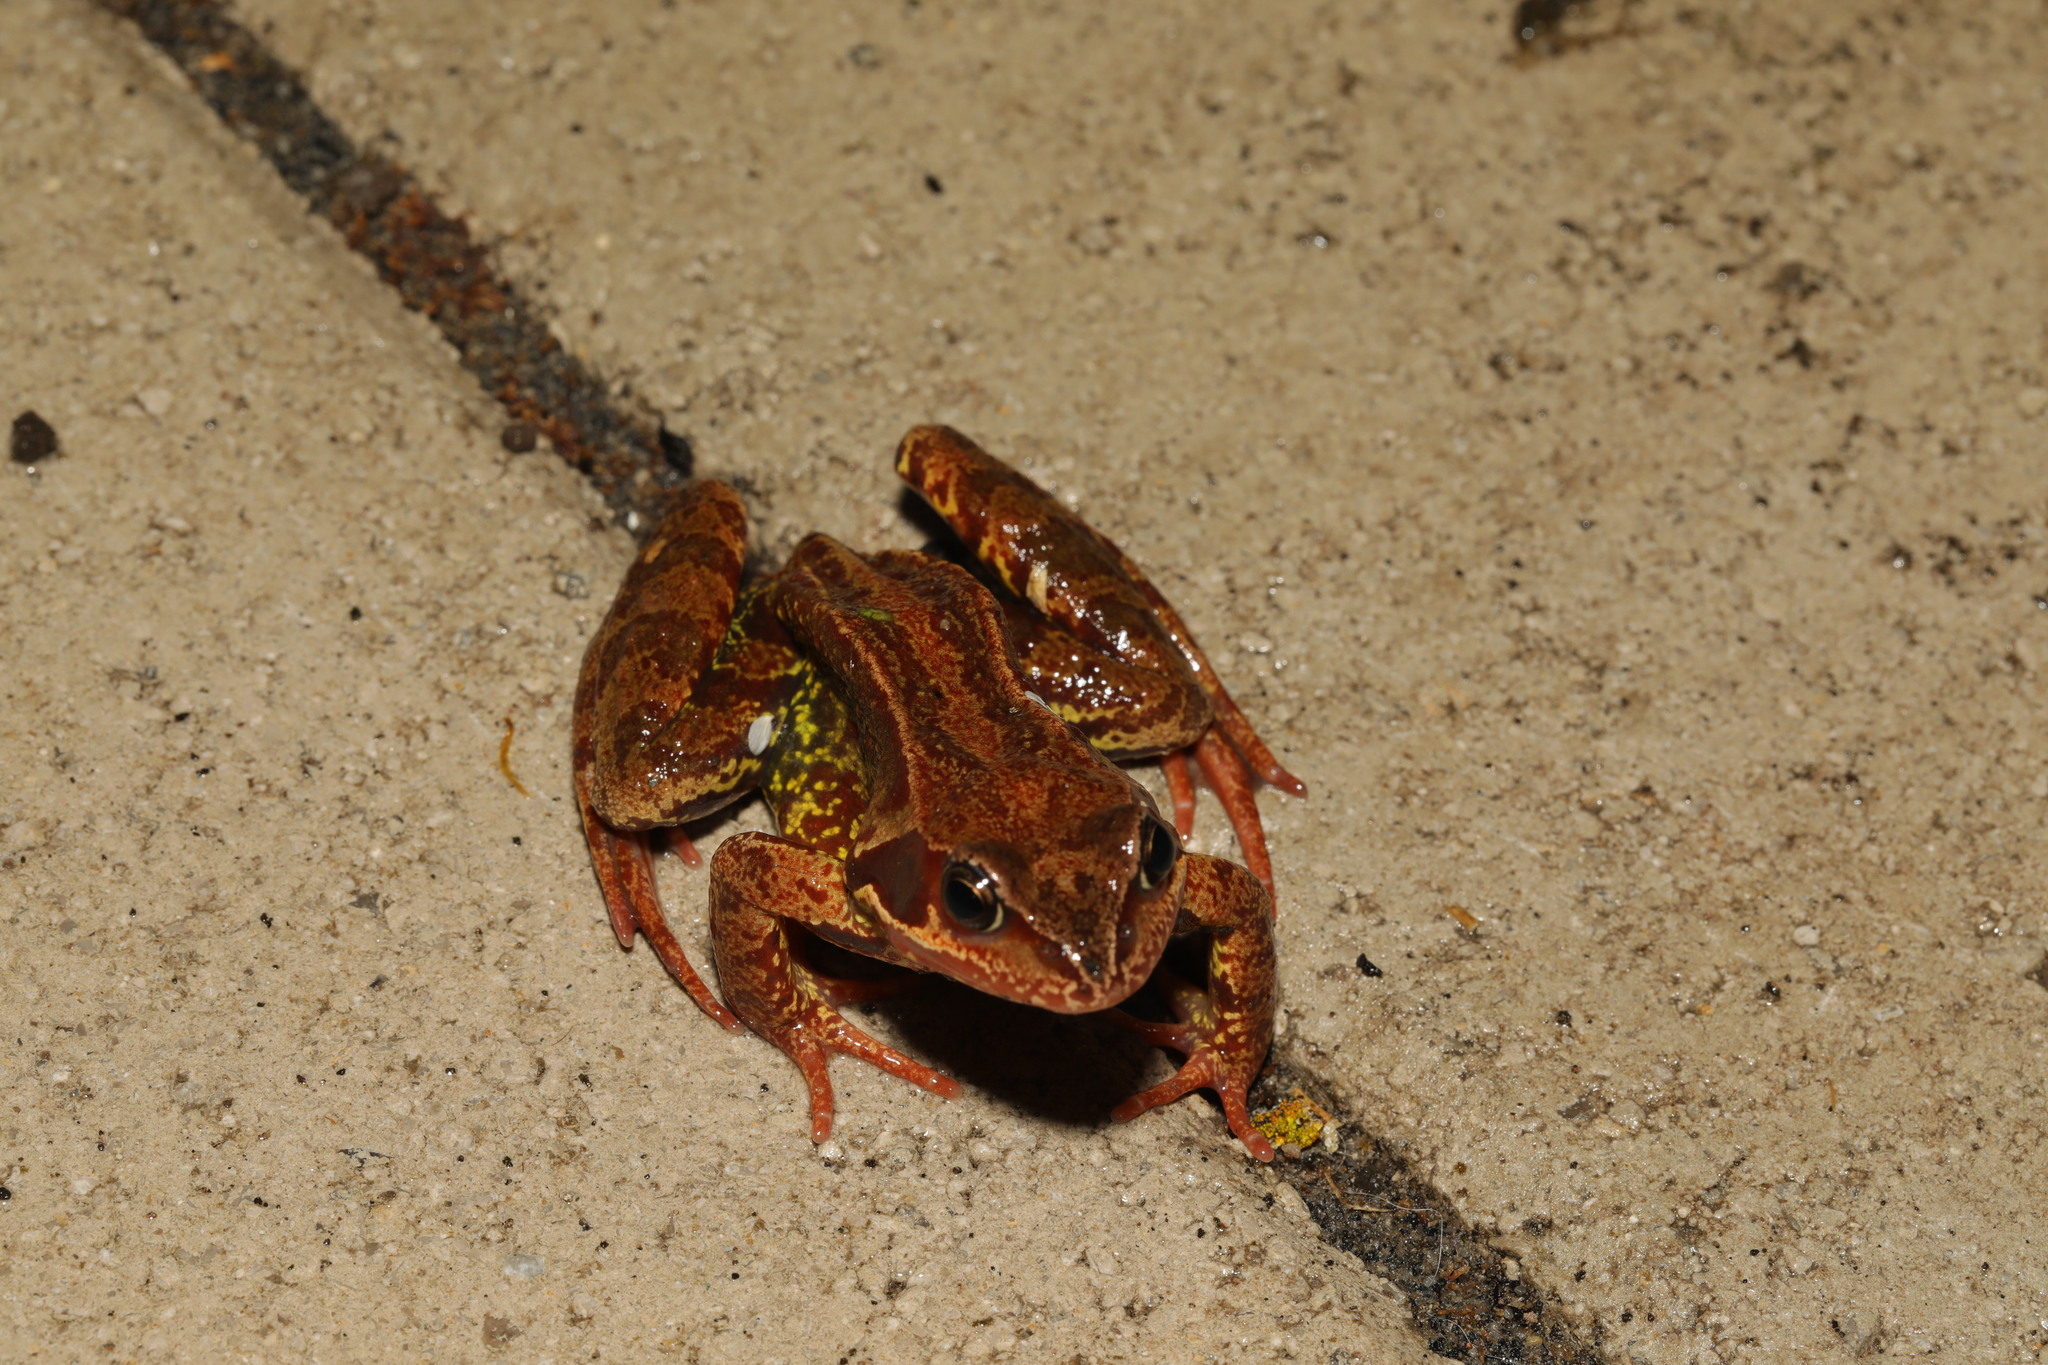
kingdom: Animalia
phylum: Chordata
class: Amphibia
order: Anura
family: Ranidae
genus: Rana
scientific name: Rana temporaria
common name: Common frog
